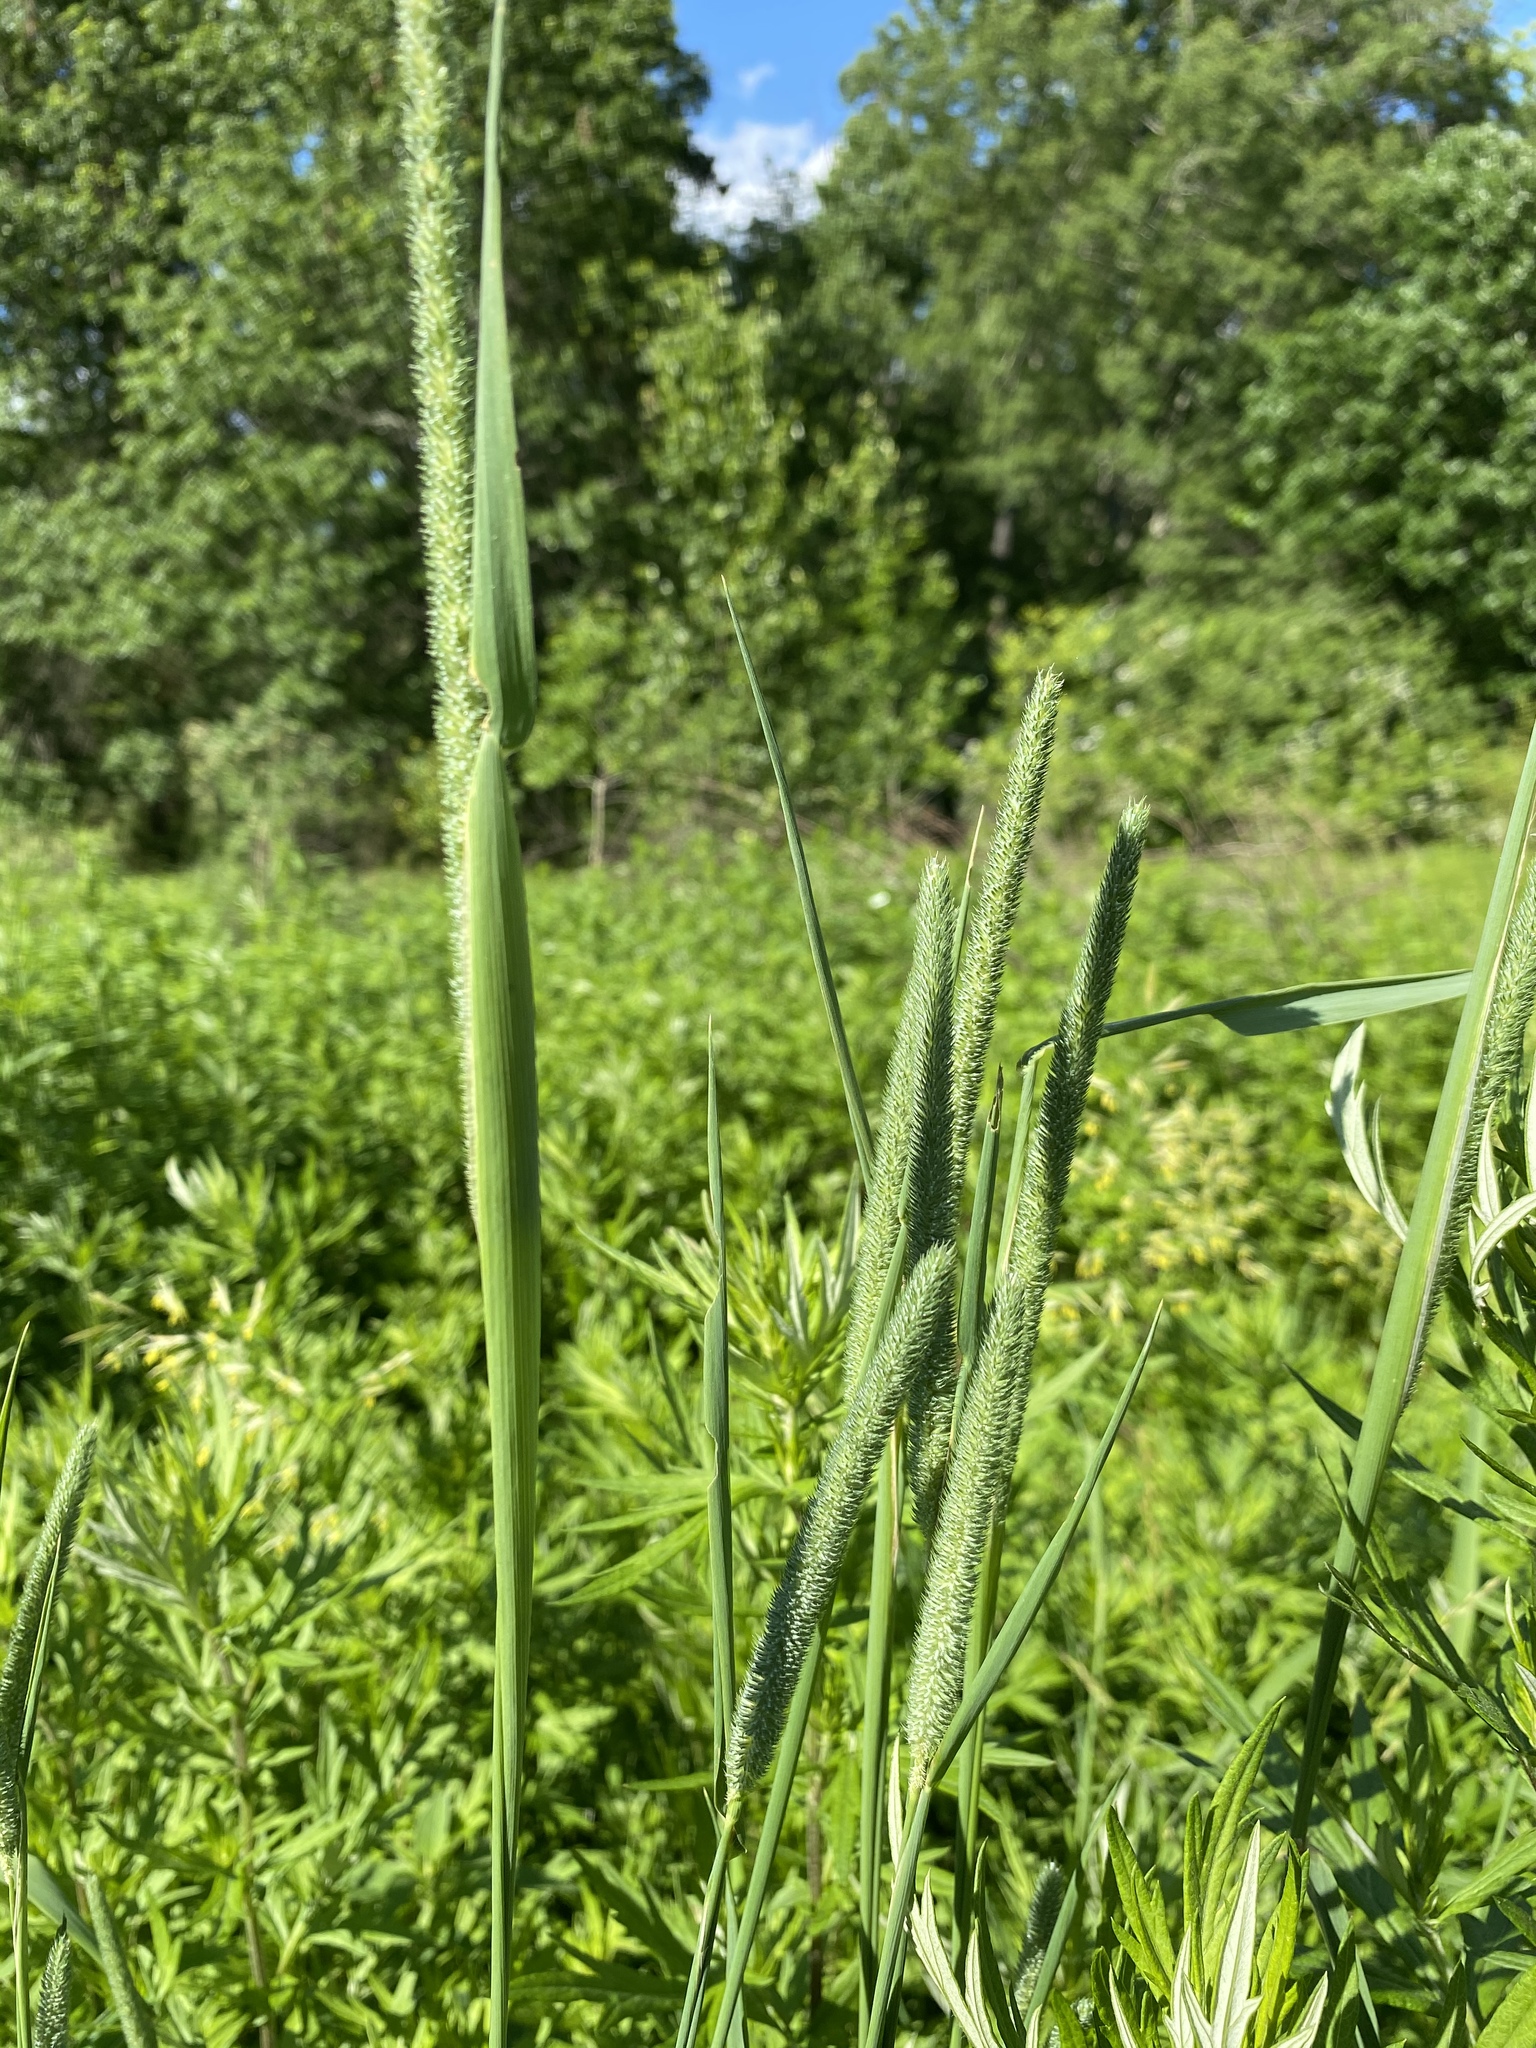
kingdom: Plantae
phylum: Tracheophyta
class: Liliopsida
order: Poales
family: Poaceae
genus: Phleum
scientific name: Phleum pratense
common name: Timothy grass
